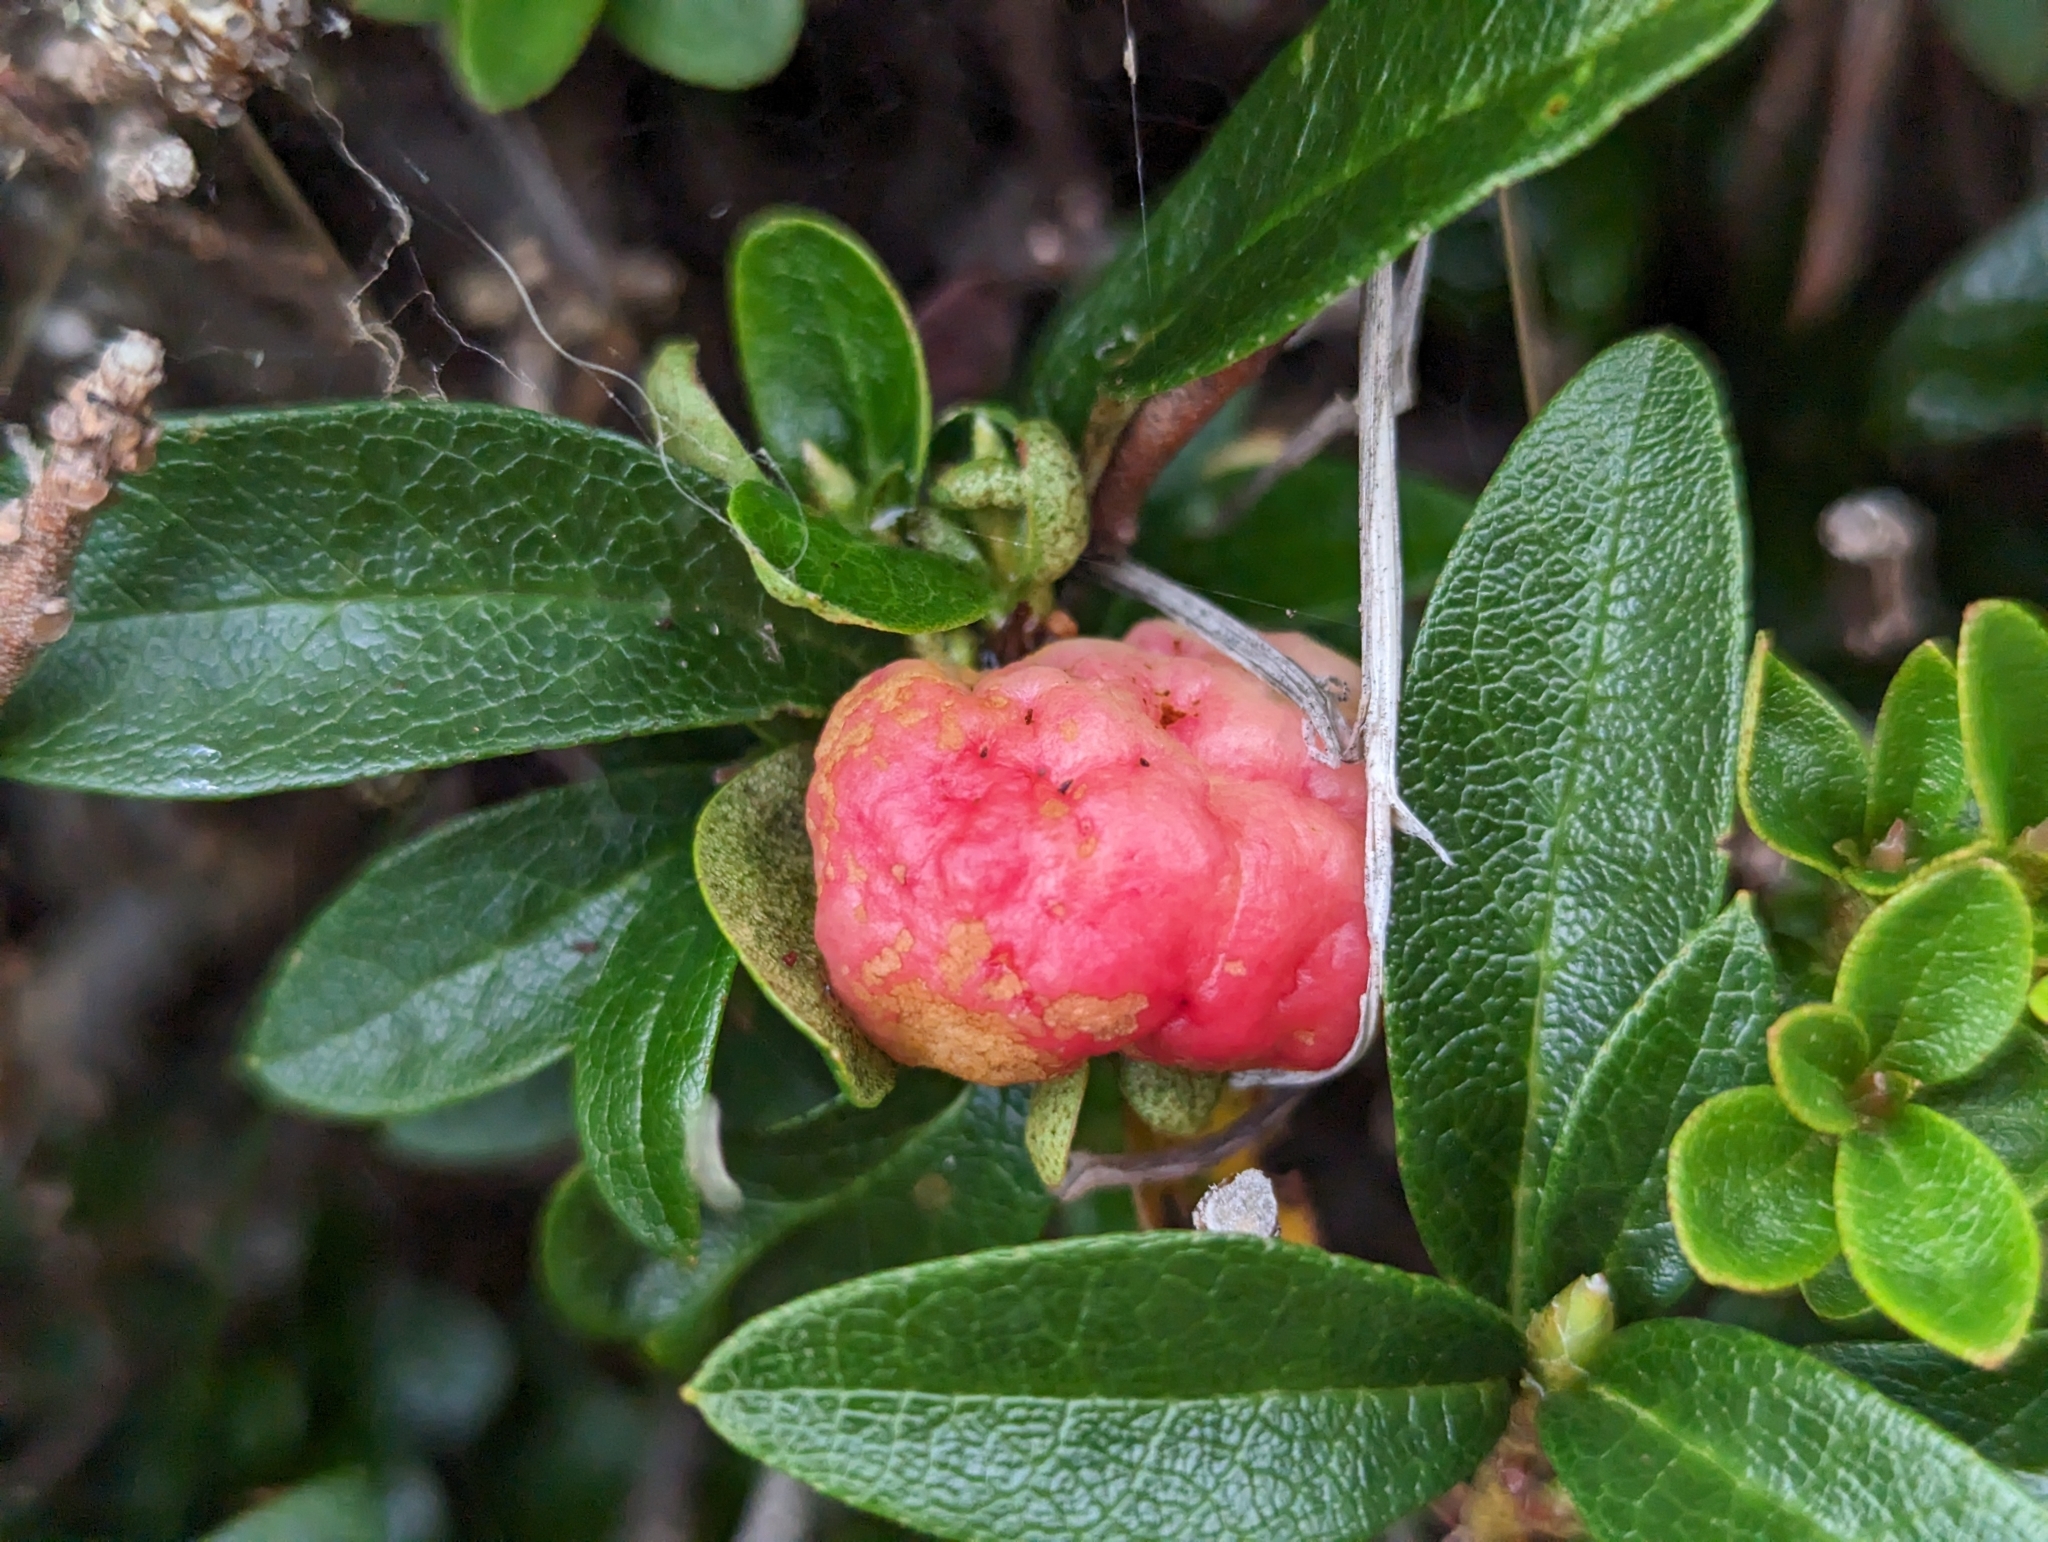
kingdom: Fungi
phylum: Basidiomycota
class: Exobasidiomycetes
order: Exobasidiales
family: Exobasidiaceae
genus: Exobasidium
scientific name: Exobasidium rhododendri
